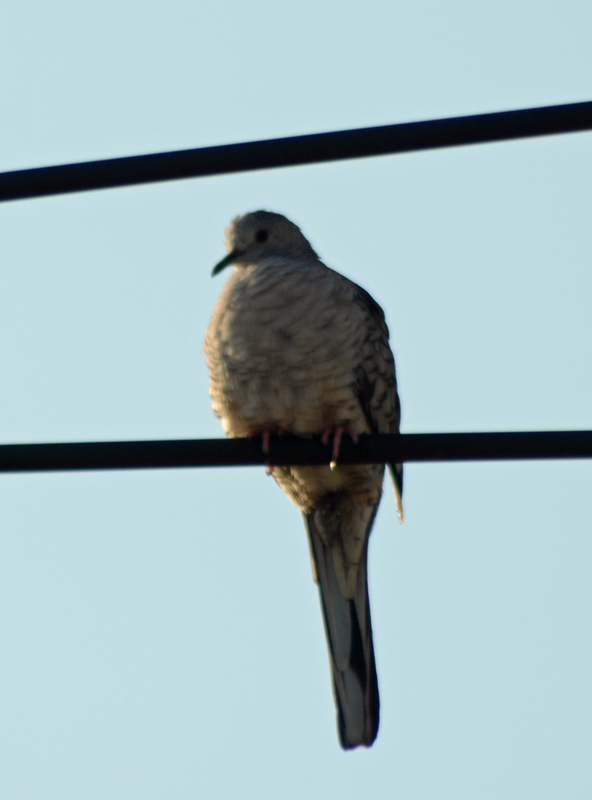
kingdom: Animalia
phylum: Chordata
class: Aves
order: Columbiformes
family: Columbidae
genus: Columbina
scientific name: Columbina inca
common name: Inca dove
